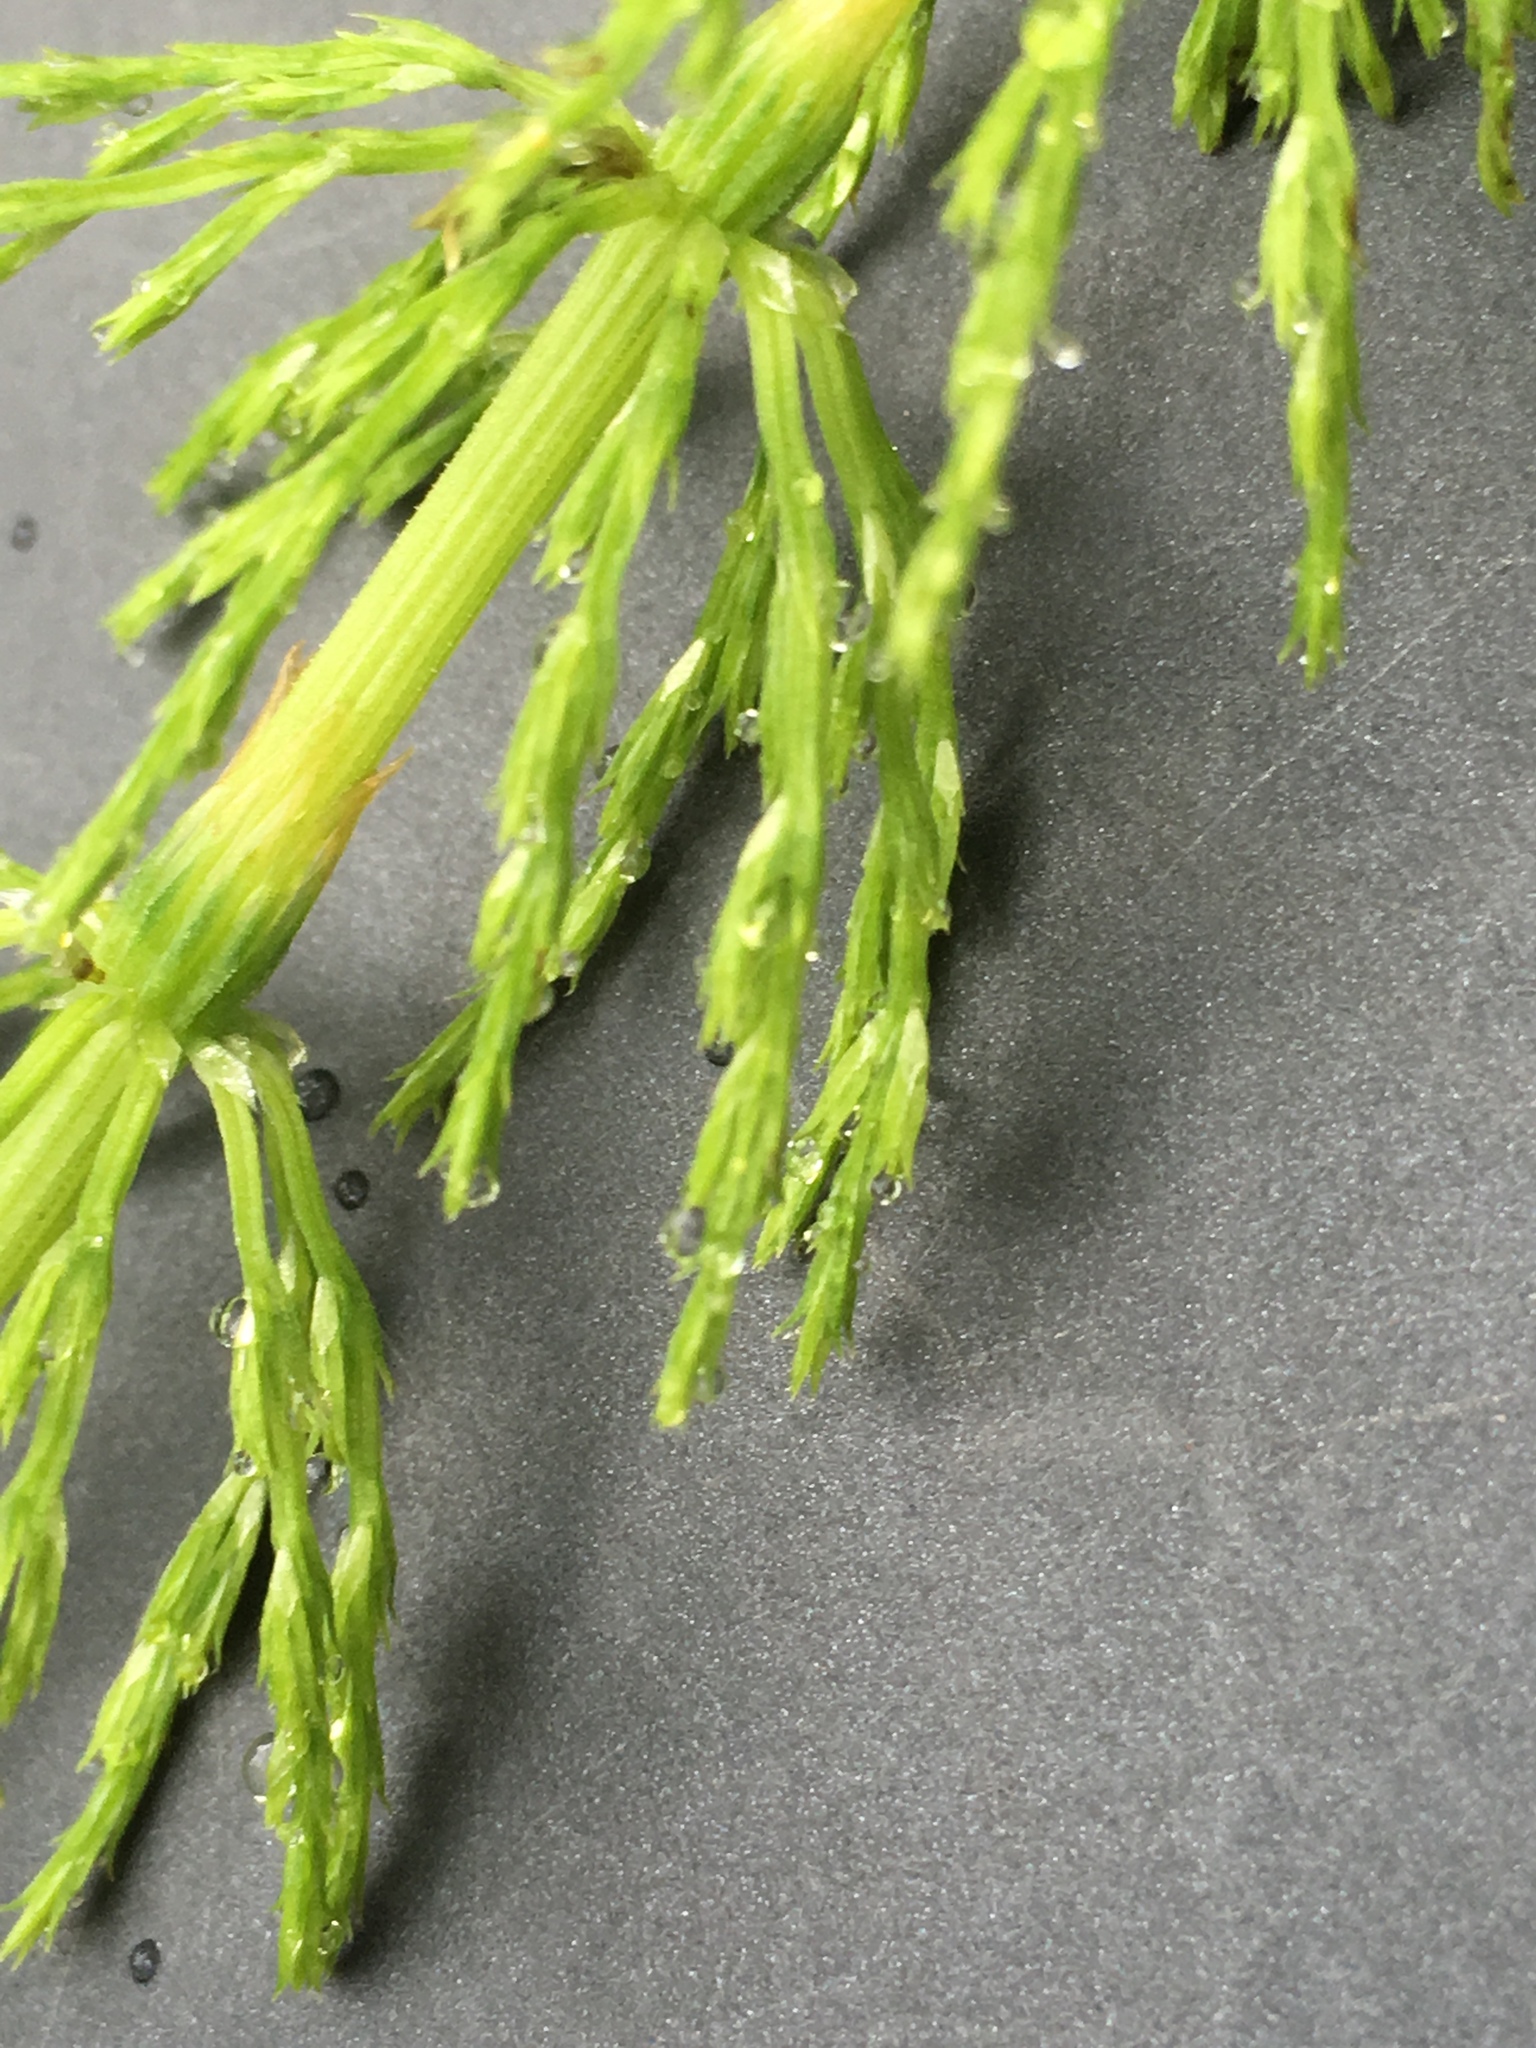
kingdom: Plantae
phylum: Tracheophyta
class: Polypodiopsida
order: Equisetales
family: Equisetaceae
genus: Equisetum
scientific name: Equisetum sylvaticum
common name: Wood horsetail
